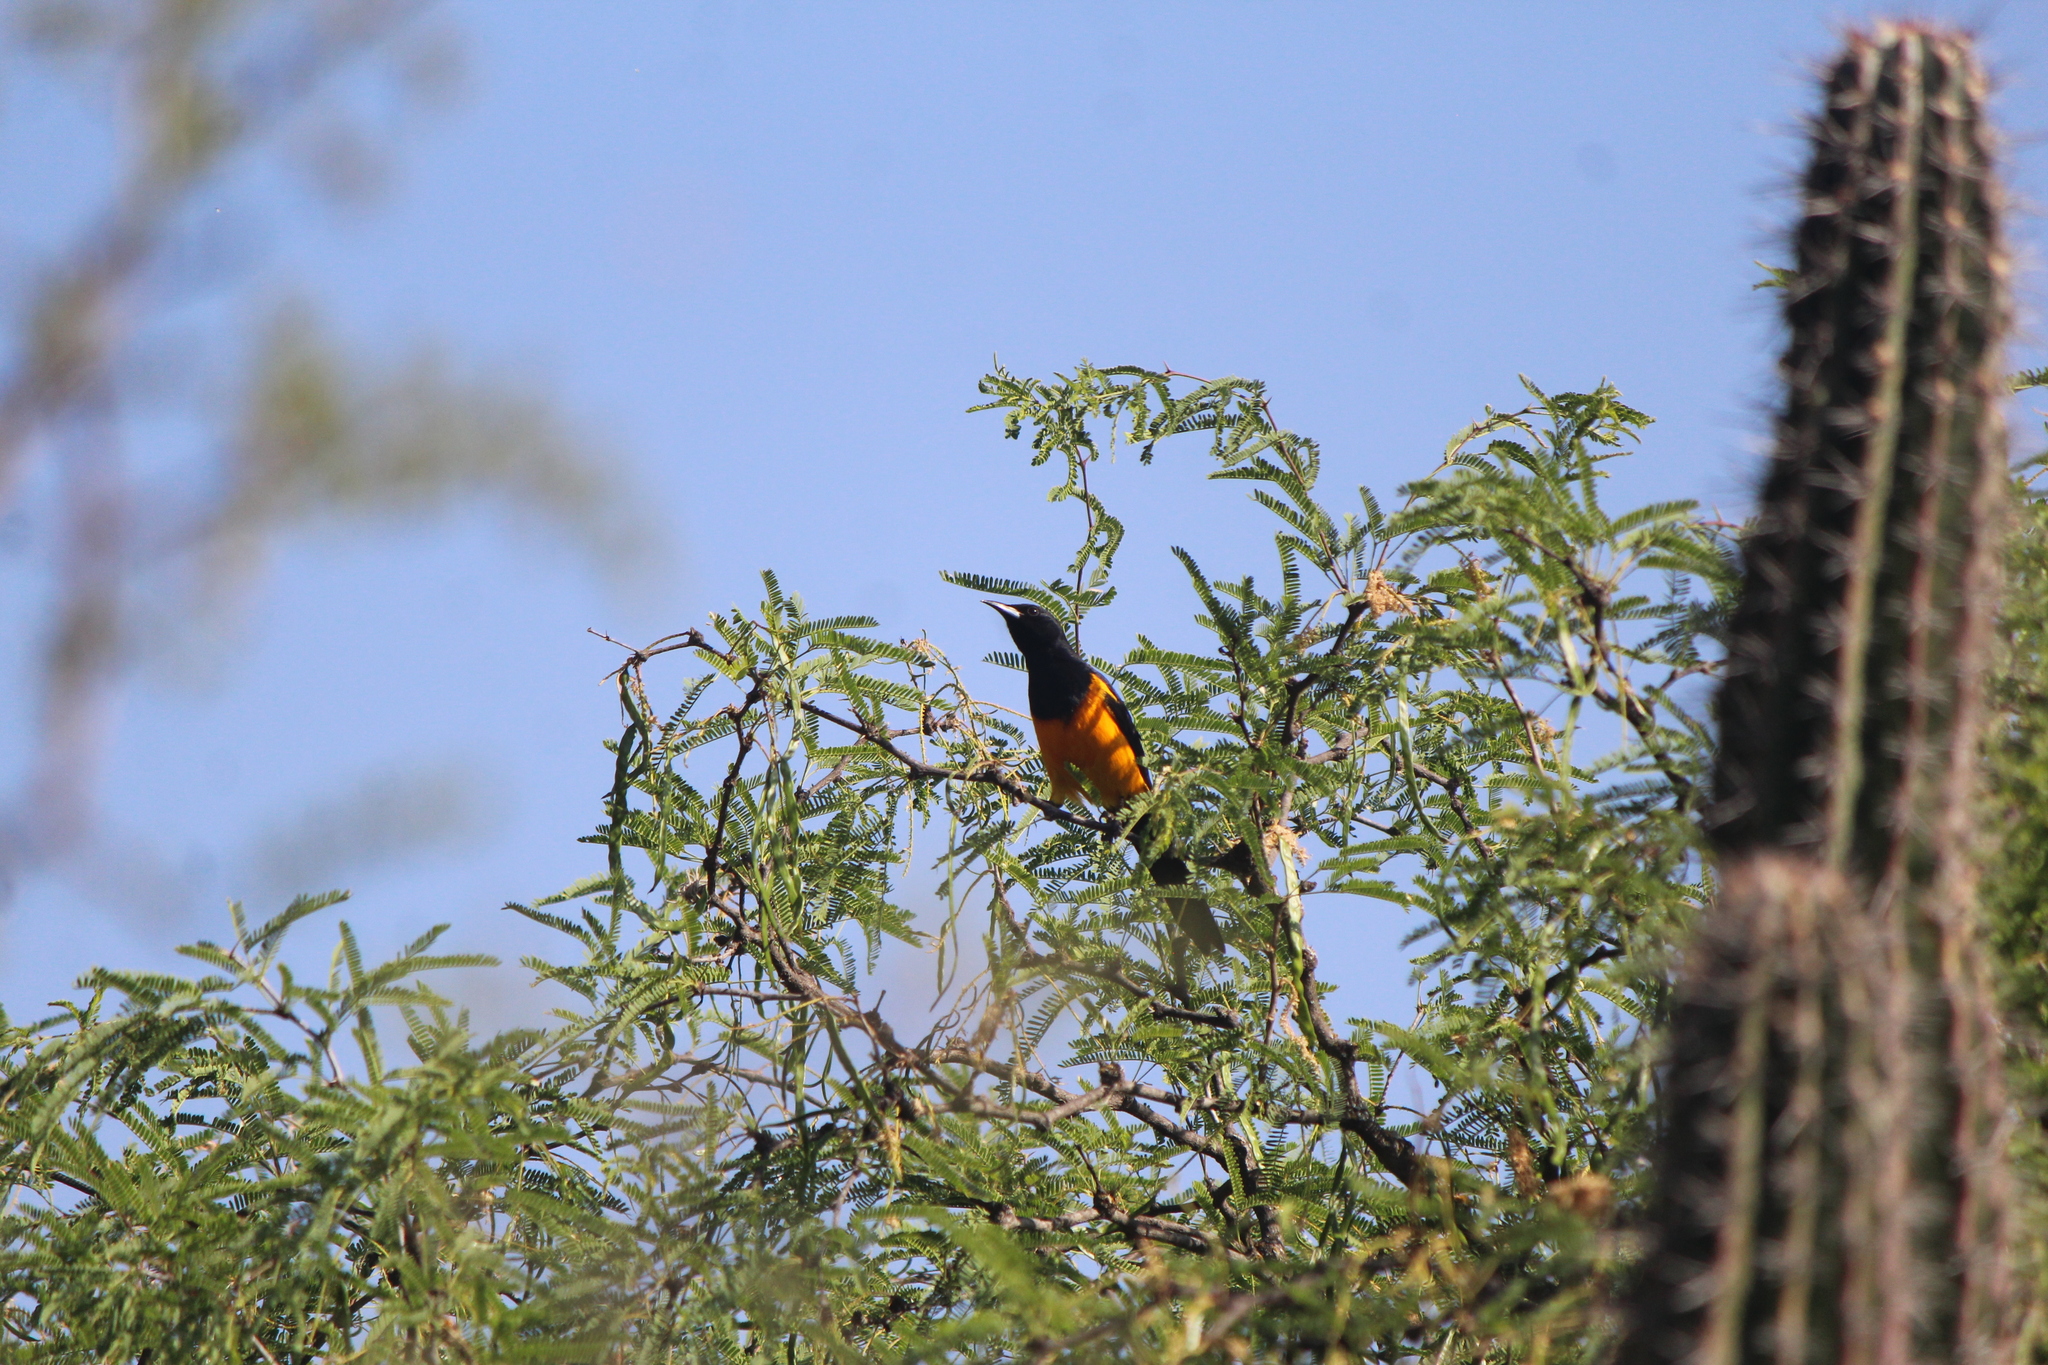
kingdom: Animalia
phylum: Chordata
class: Aves
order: Passeriformes
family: Icteridae
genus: Icterus
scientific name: Icterus wagleri
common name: Black-vented oriole
